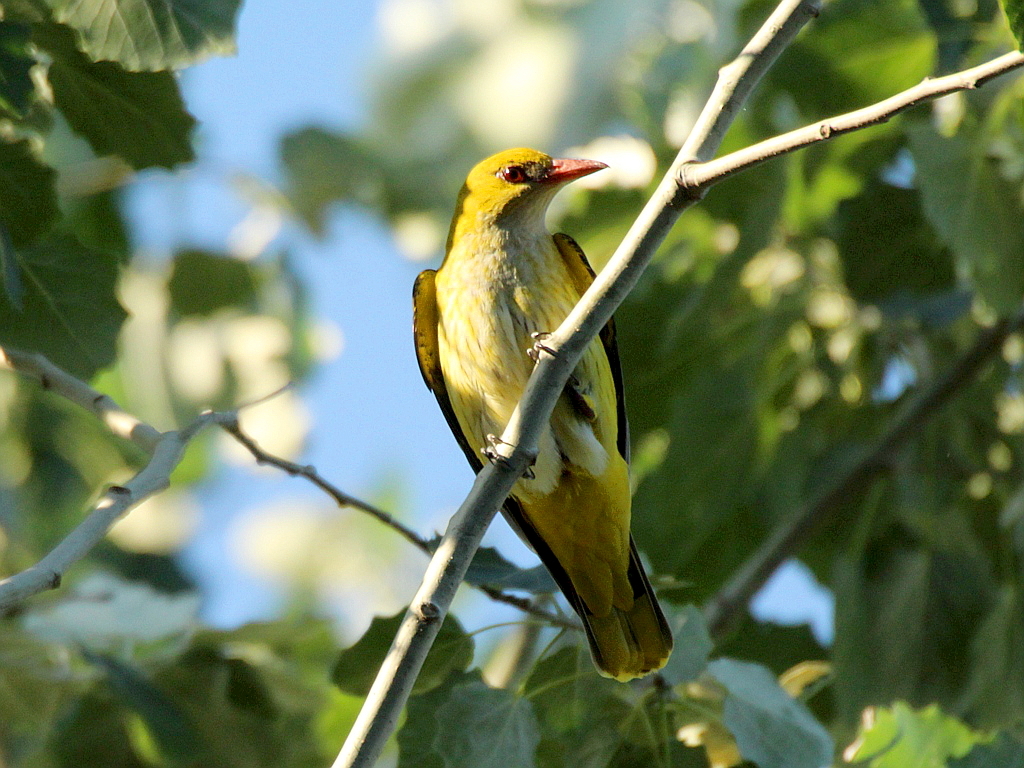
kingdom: Animalia
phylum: Chordata
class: Aves
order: Passeriformes
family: Oriolidae
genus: Oriolus
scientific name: Oriolus oriolus
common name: Eurasian golden oriole
